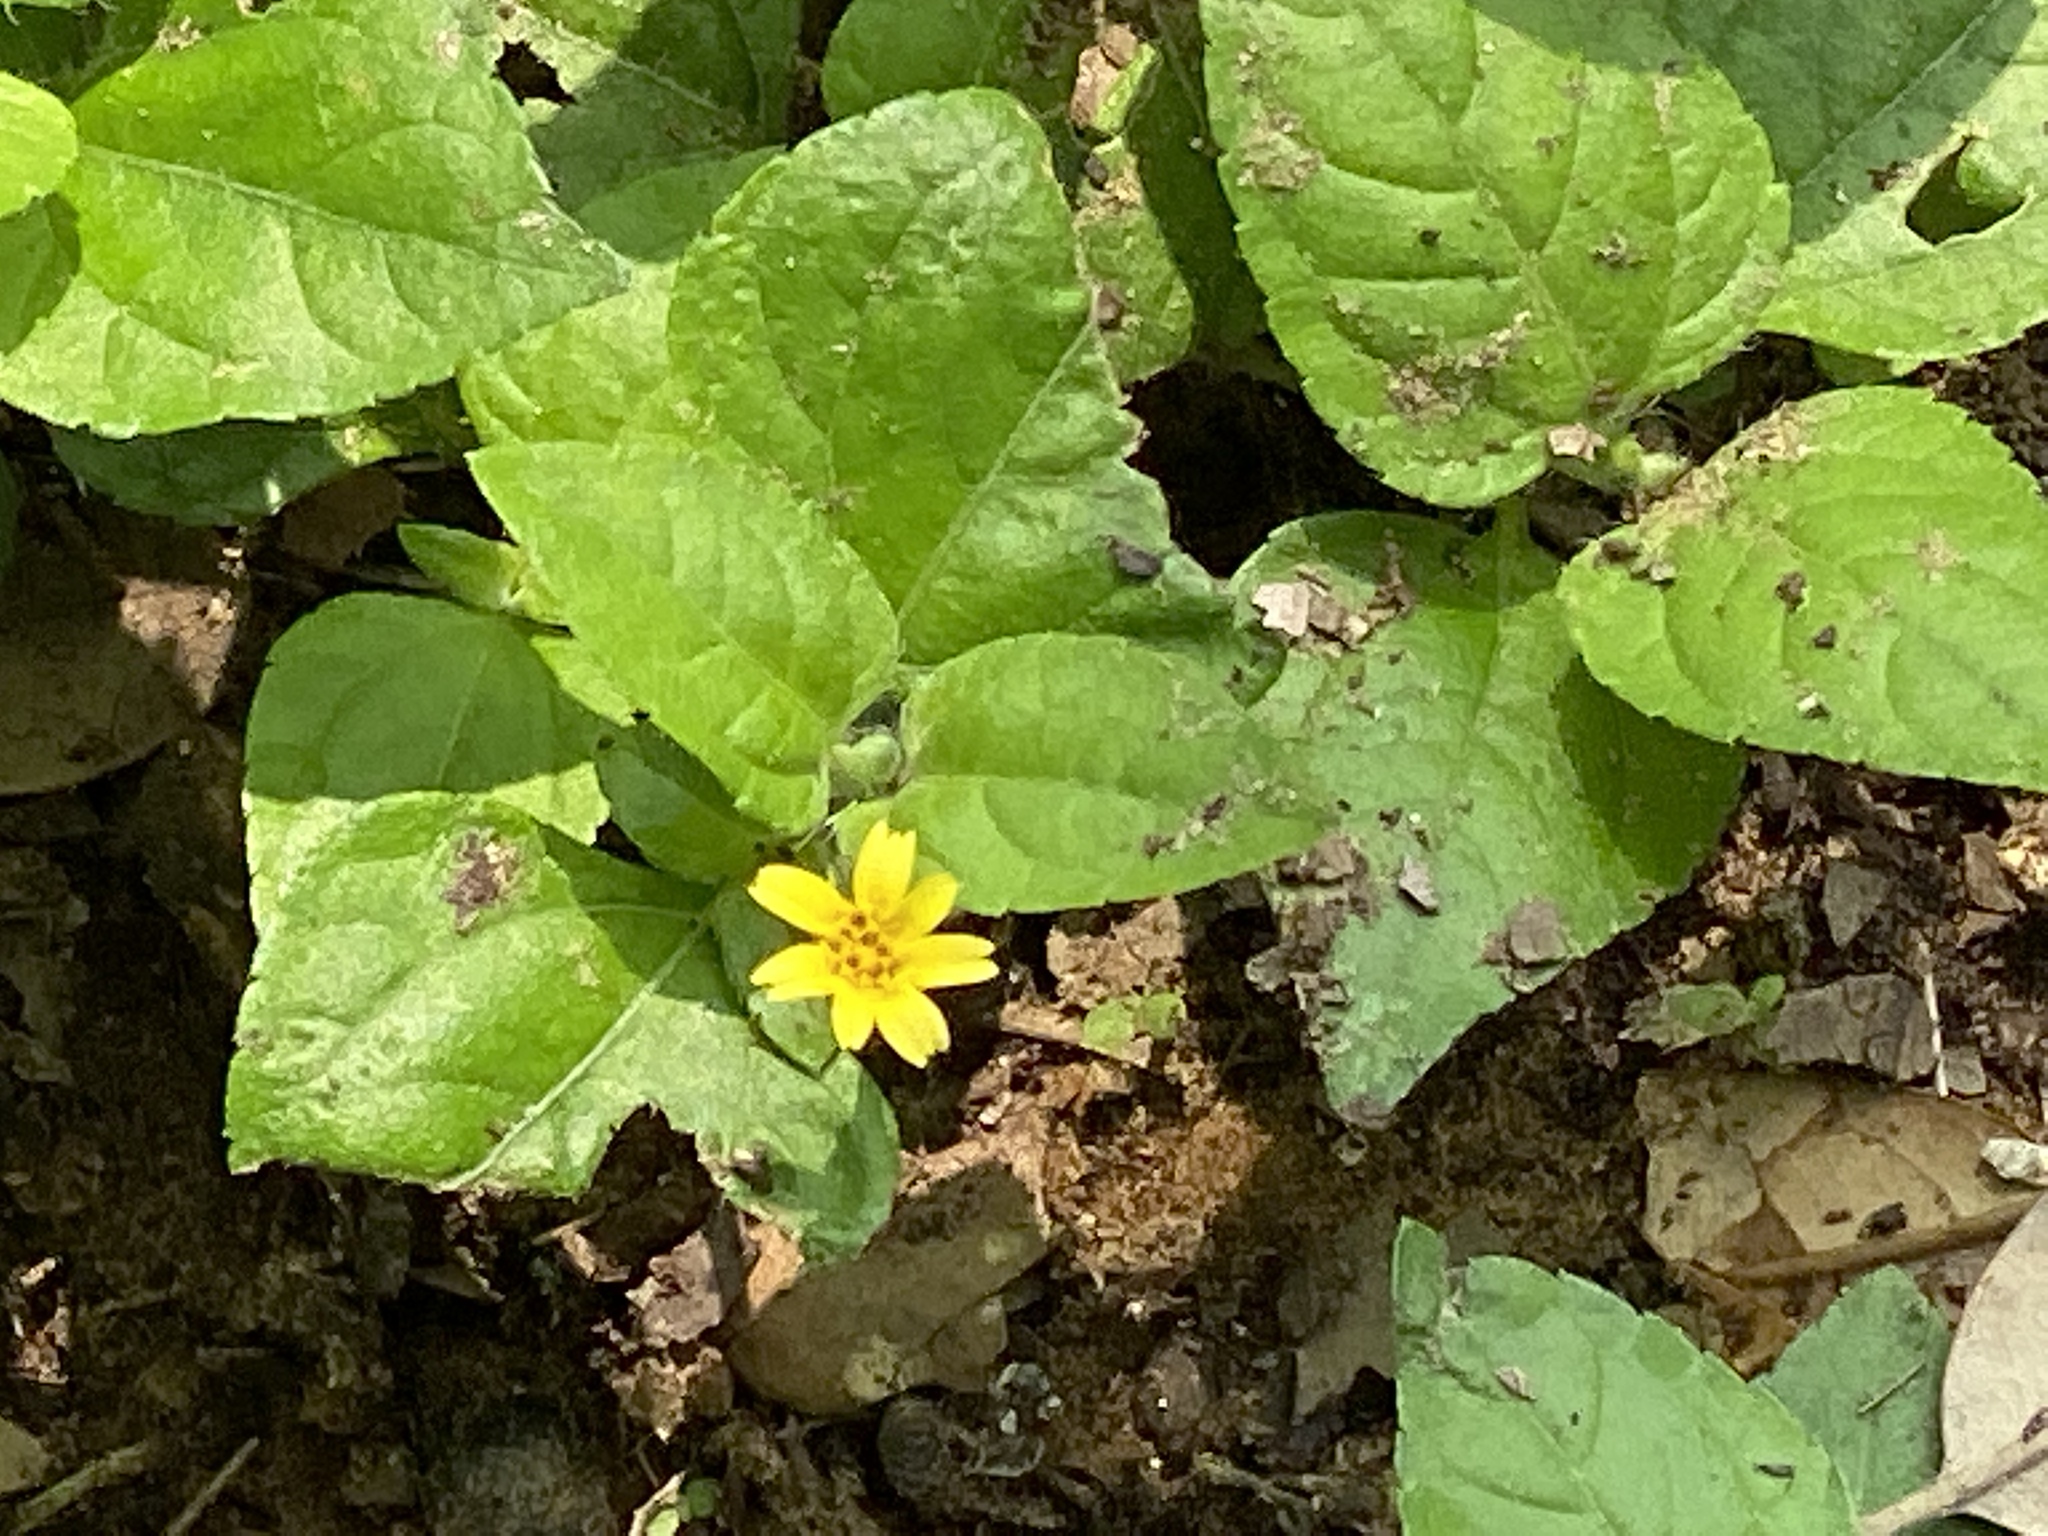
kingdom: Plantae
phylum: Tracheophyta
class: Magnoliopsida
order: Asterales
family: Asteraceae
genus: Calyptocarpus
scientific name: Calyptocarpus vialis
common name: Straggler daisy
